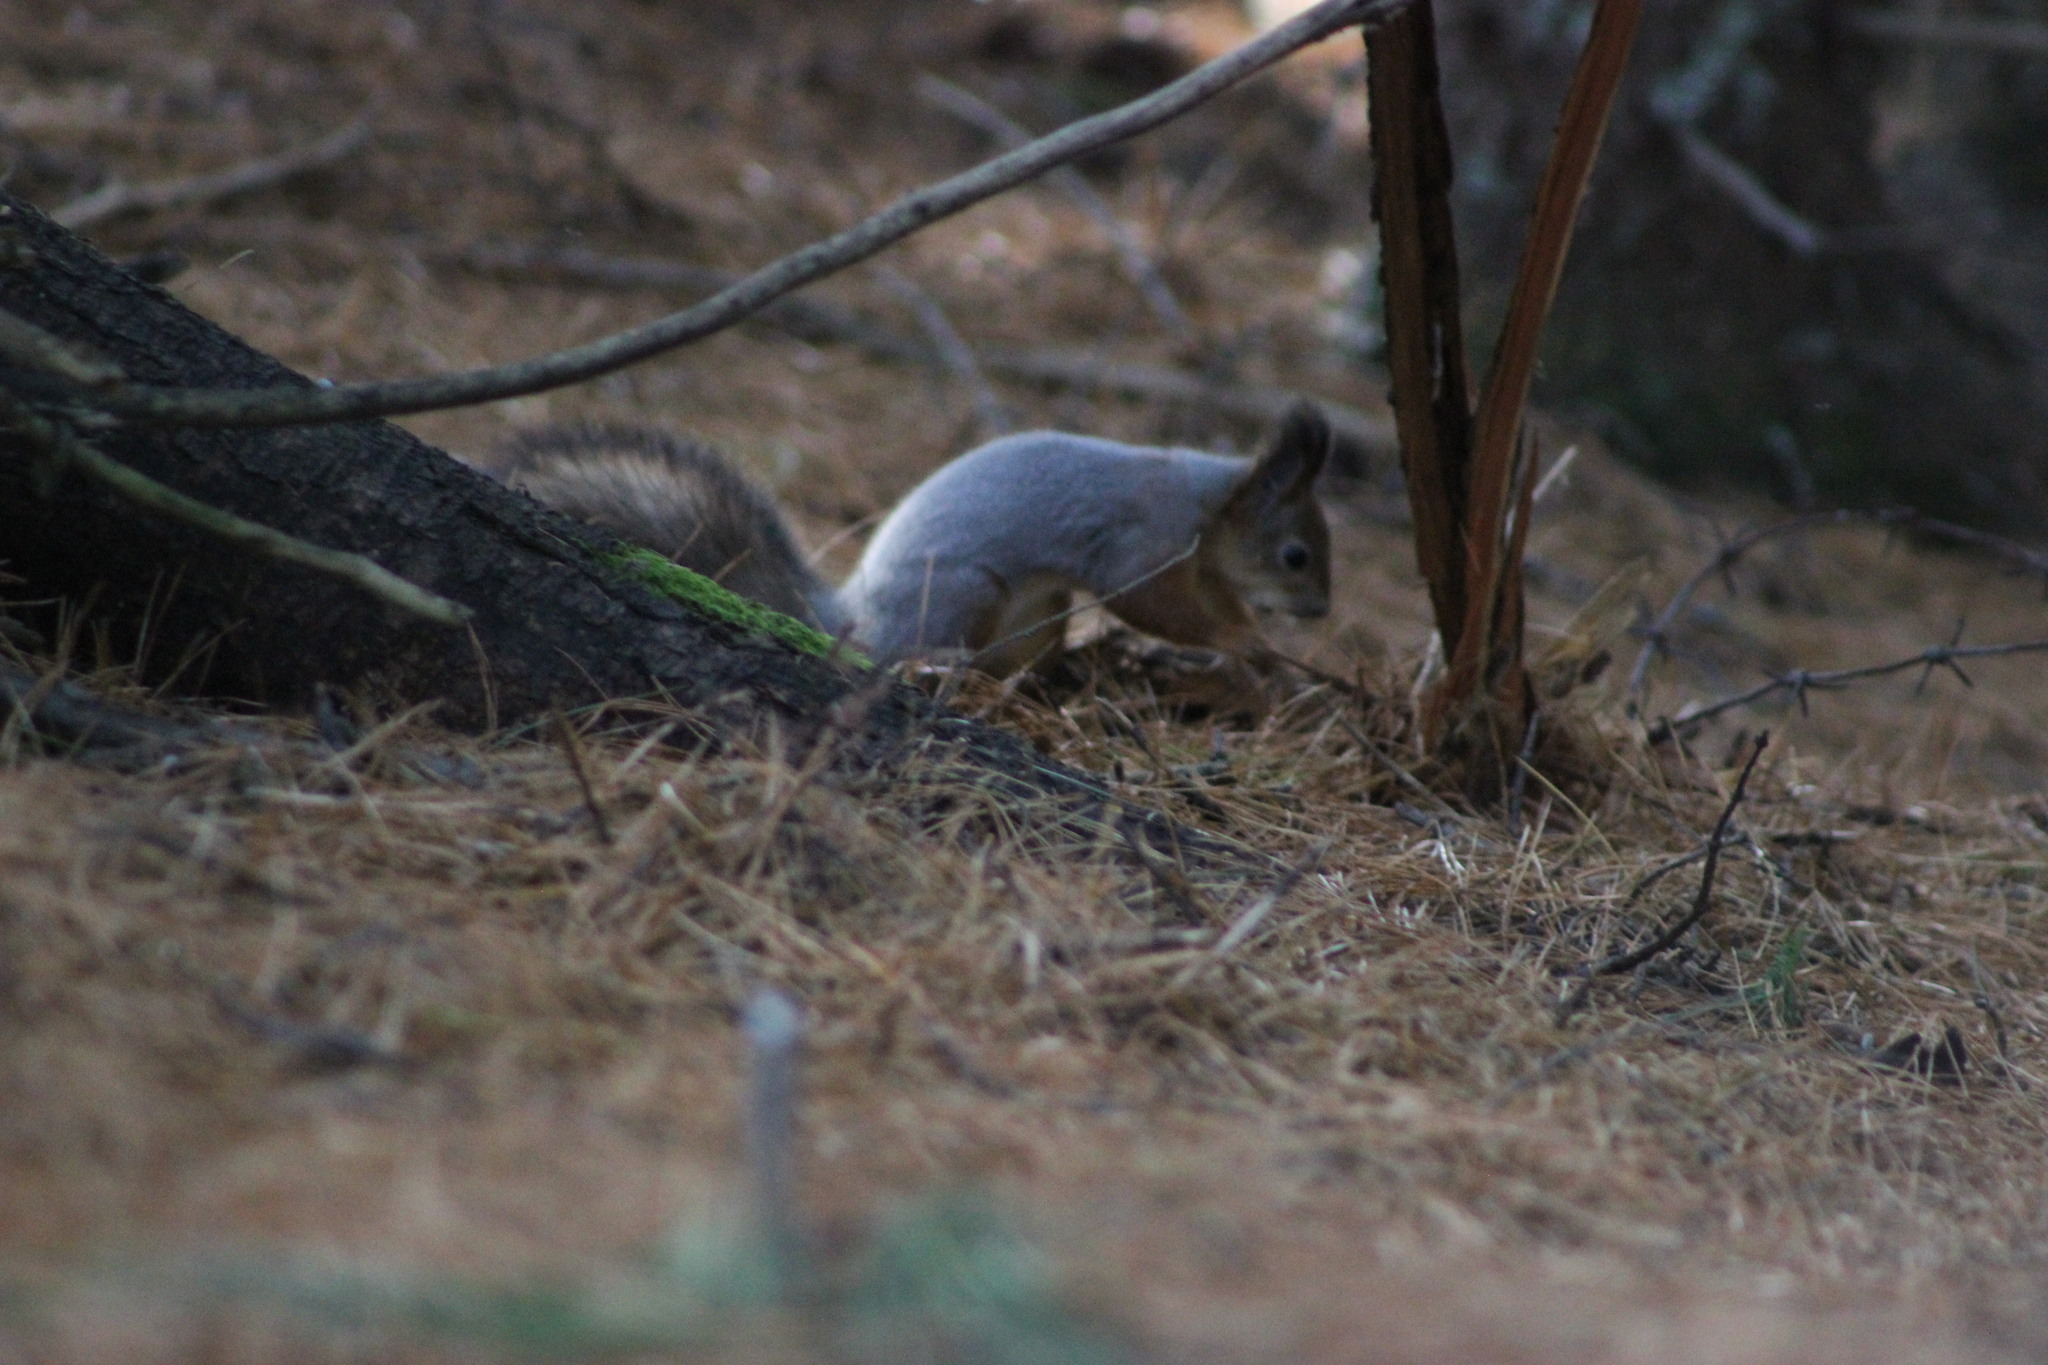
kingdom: Animalia
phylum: Chordata
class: Mammalia
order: Rodentia
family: Sciuridae
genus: Sciurus
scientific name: Sciurus vulgaris
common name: Eurasian red squirrel
